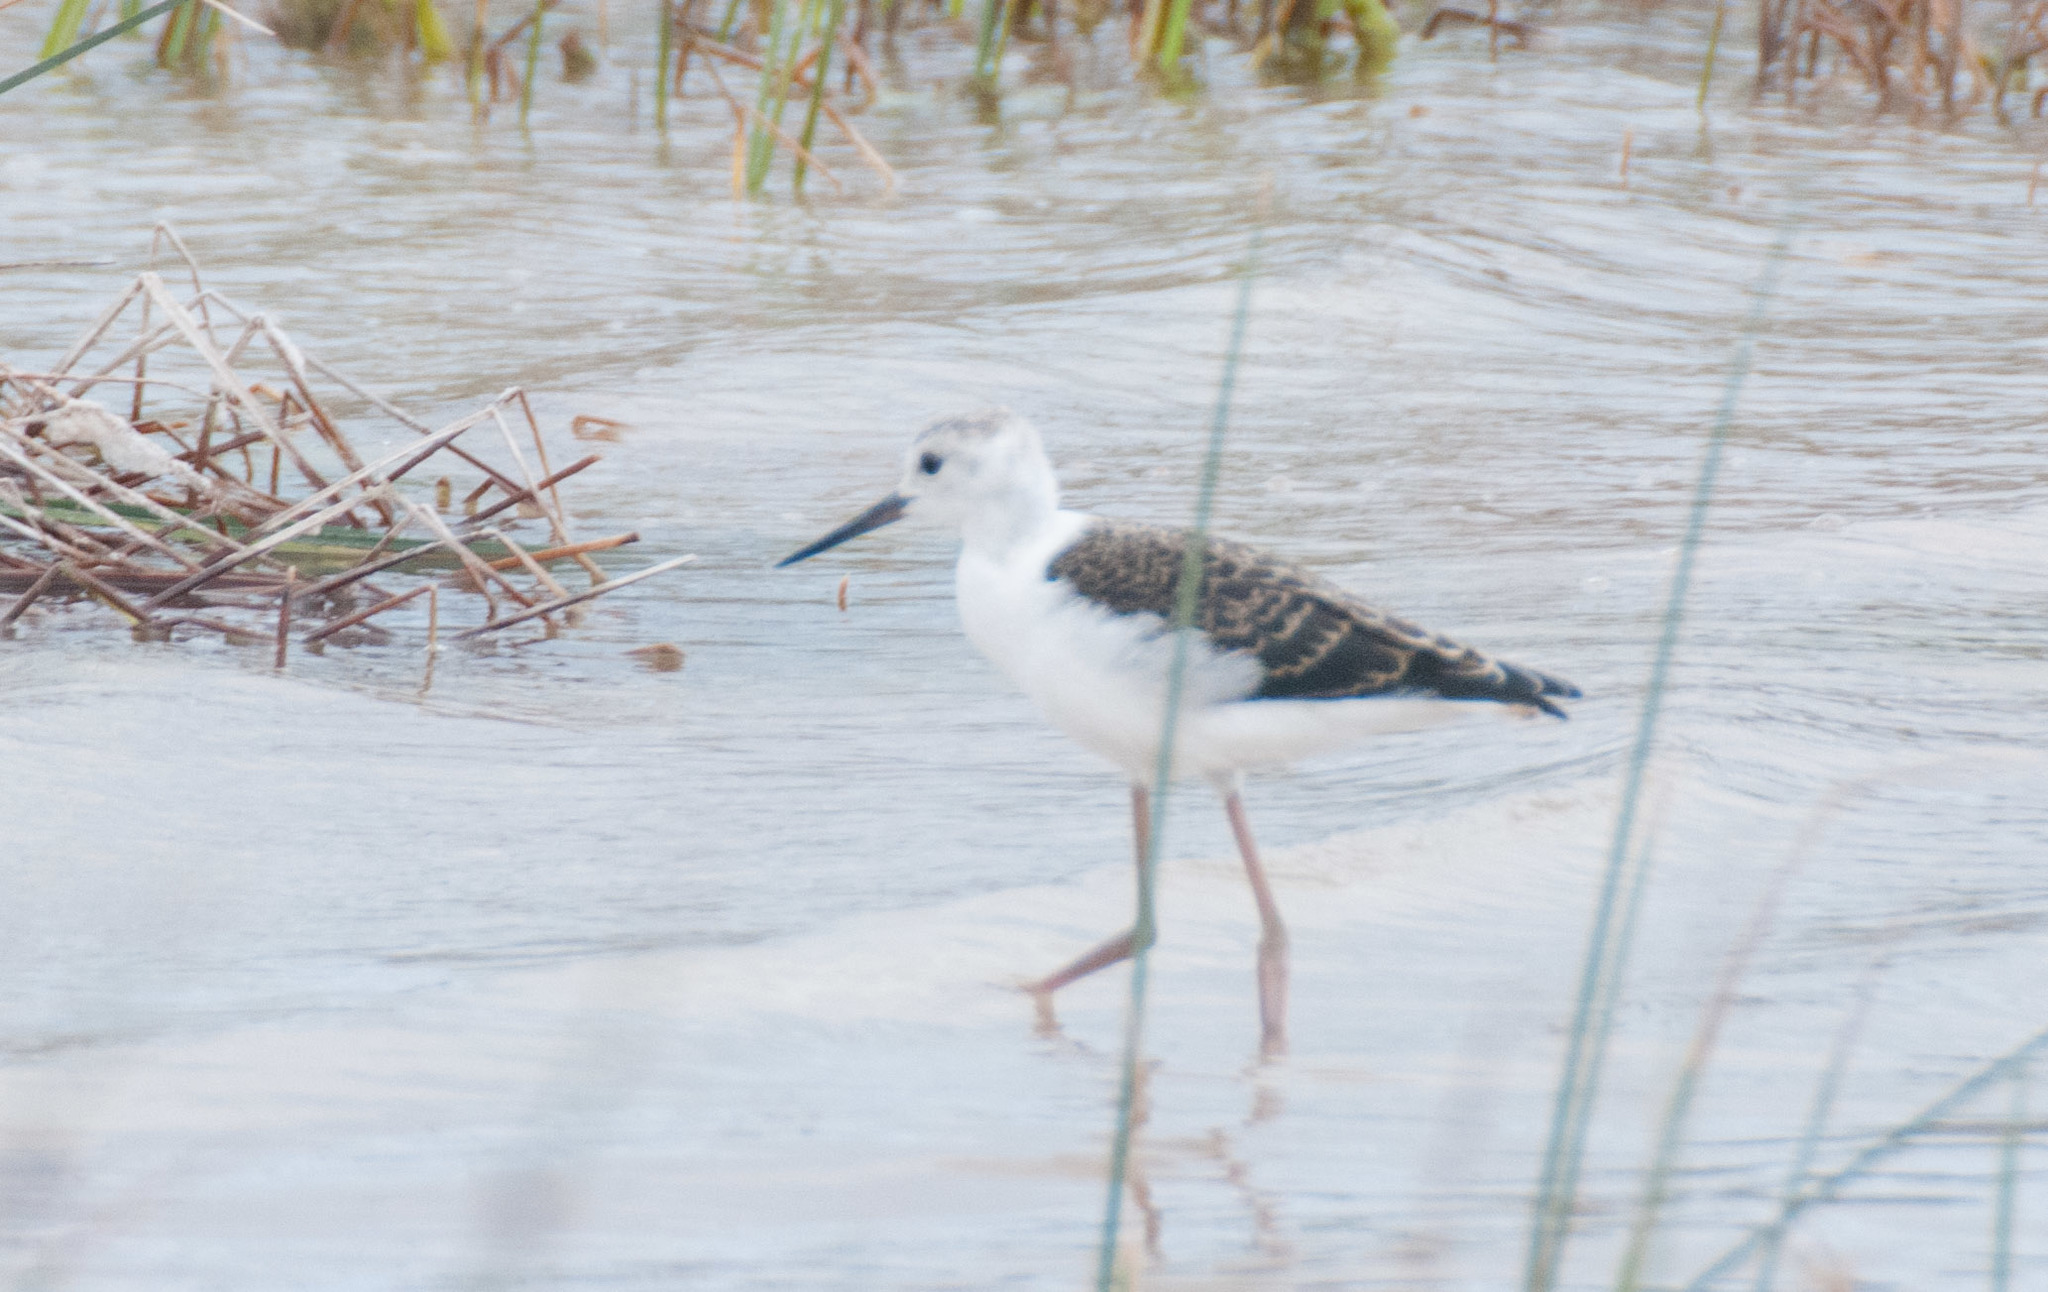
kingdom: Animalia
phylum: Chordata
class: Aves
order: Charadriiformes
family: Recurvirostridae
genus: Himantopus
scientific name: Himantopus leucocephalus
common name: White-headed stilt
